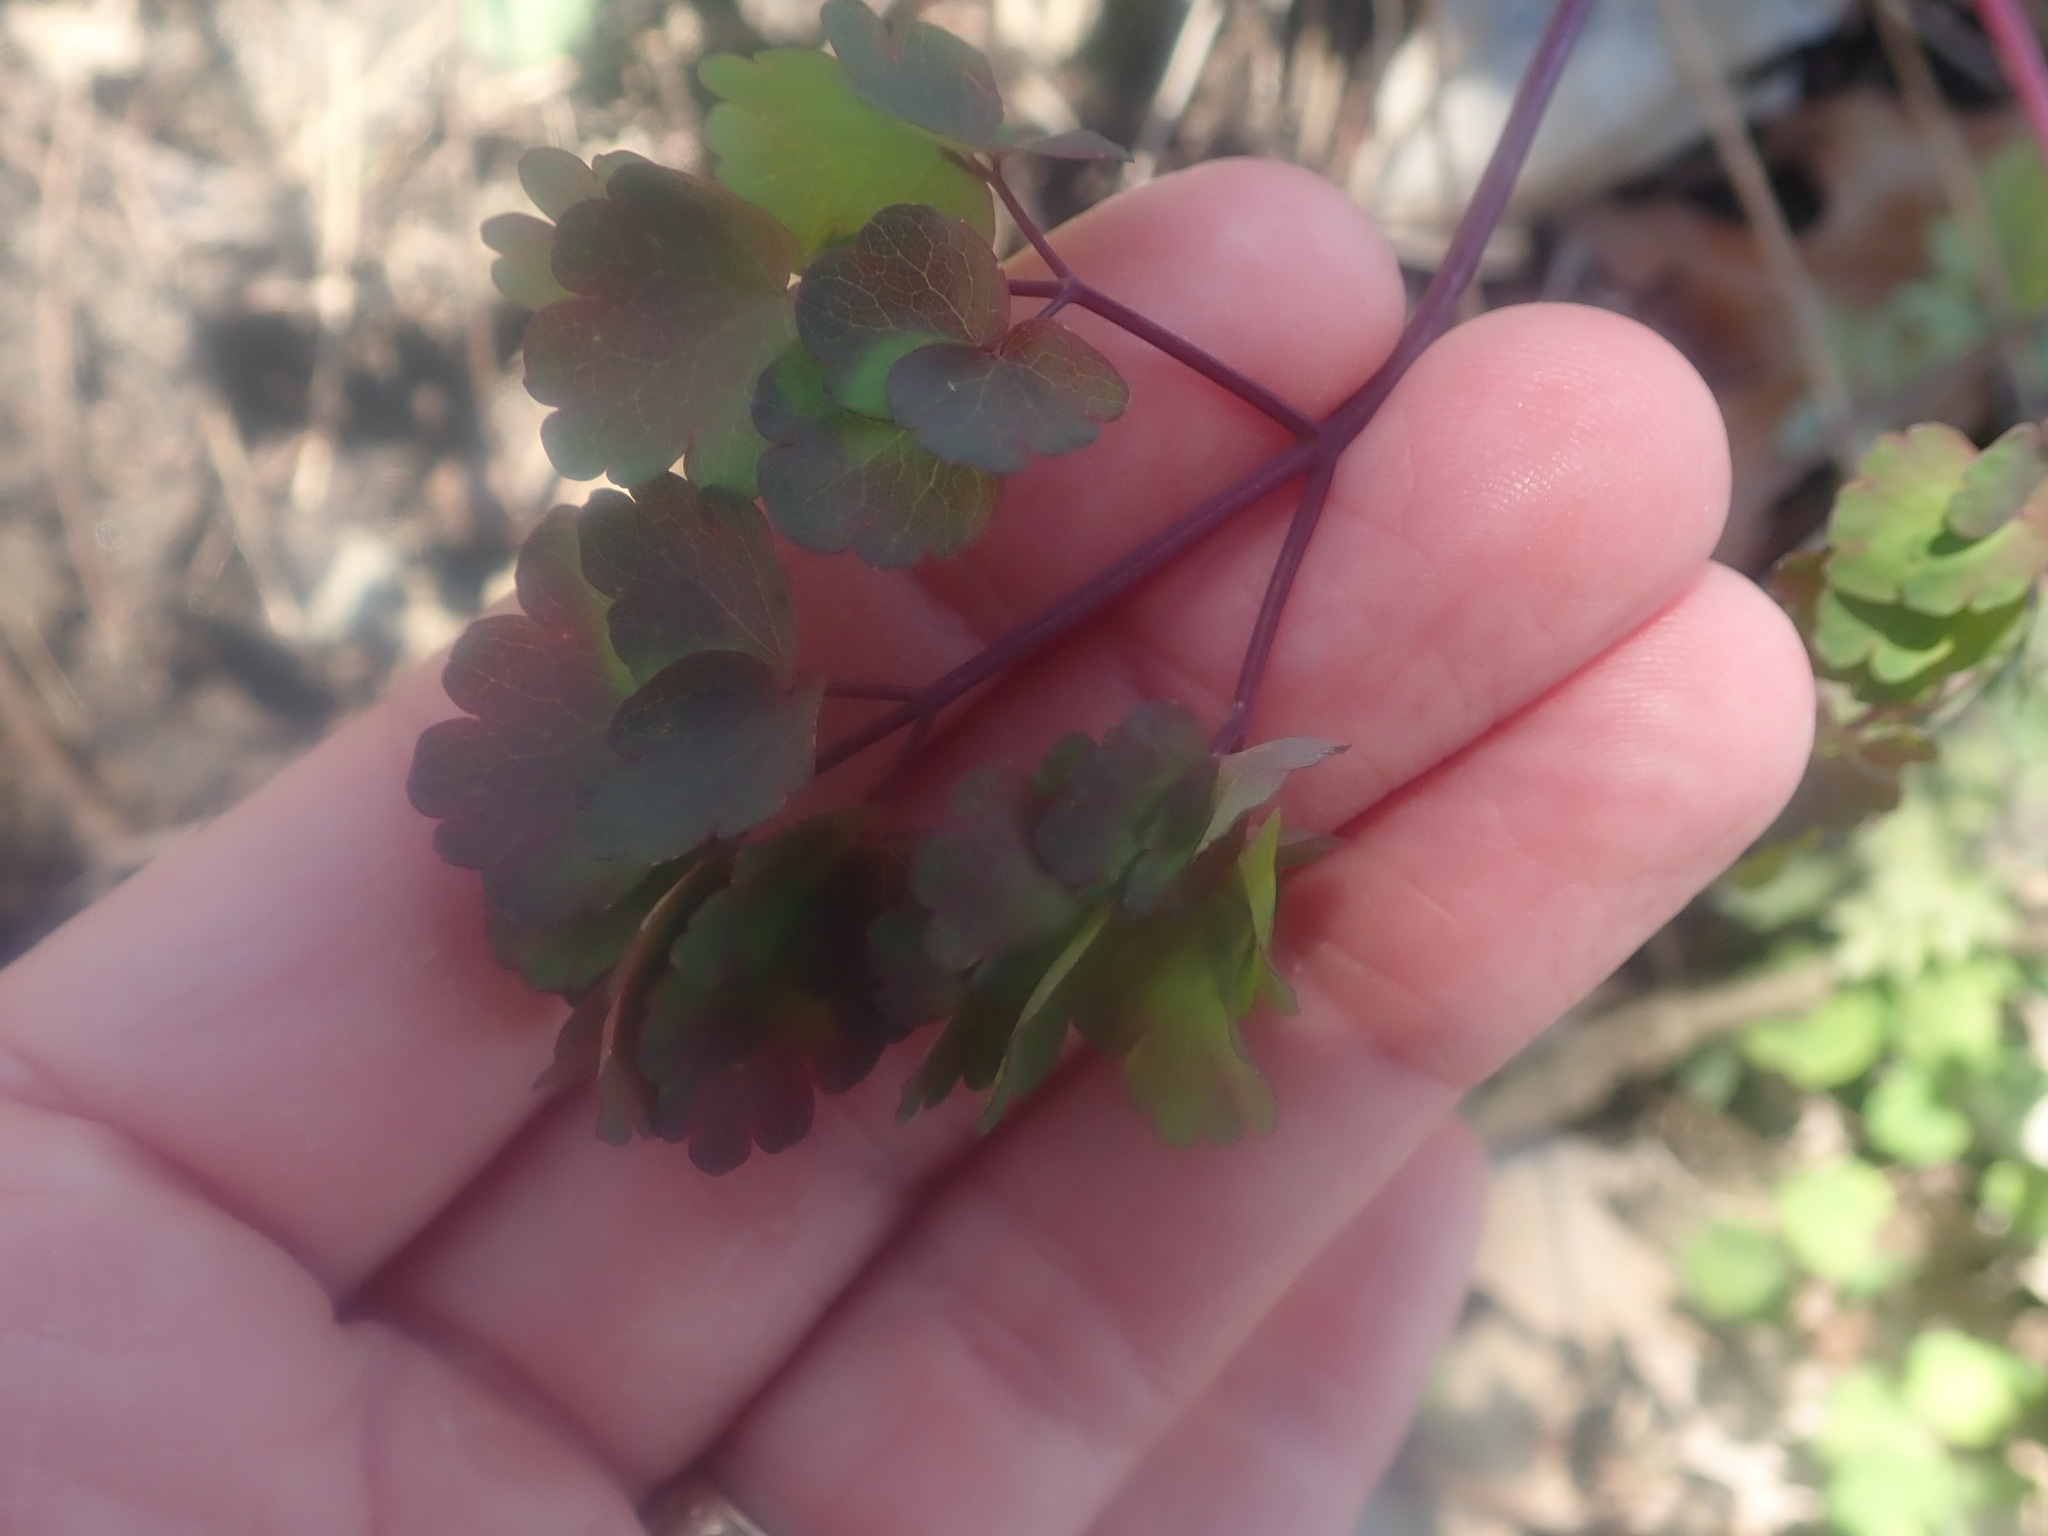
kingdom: Plantae
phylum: Tracheophyta
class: Magnoliopsida
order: Ranunculales
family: Ranunculaceae
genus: Thalictrum
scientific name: Thalictrum dioicum
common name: Early meadow-rue
